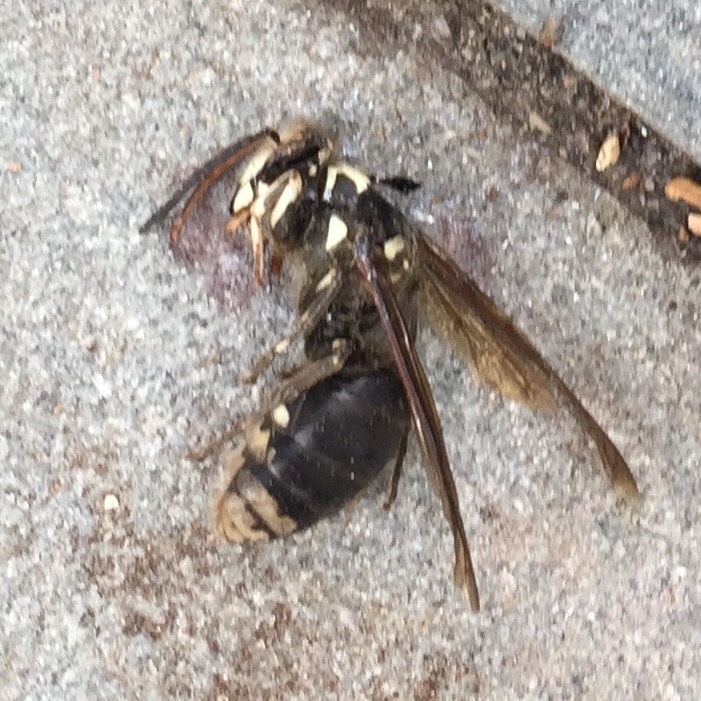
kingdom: Animalia
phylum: Arthropoda
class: Insecta
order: Hymenoptera
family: Vespidae
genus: Dolichovespula
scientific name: Dolichovespula maculata
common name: Bald-faced hornet
